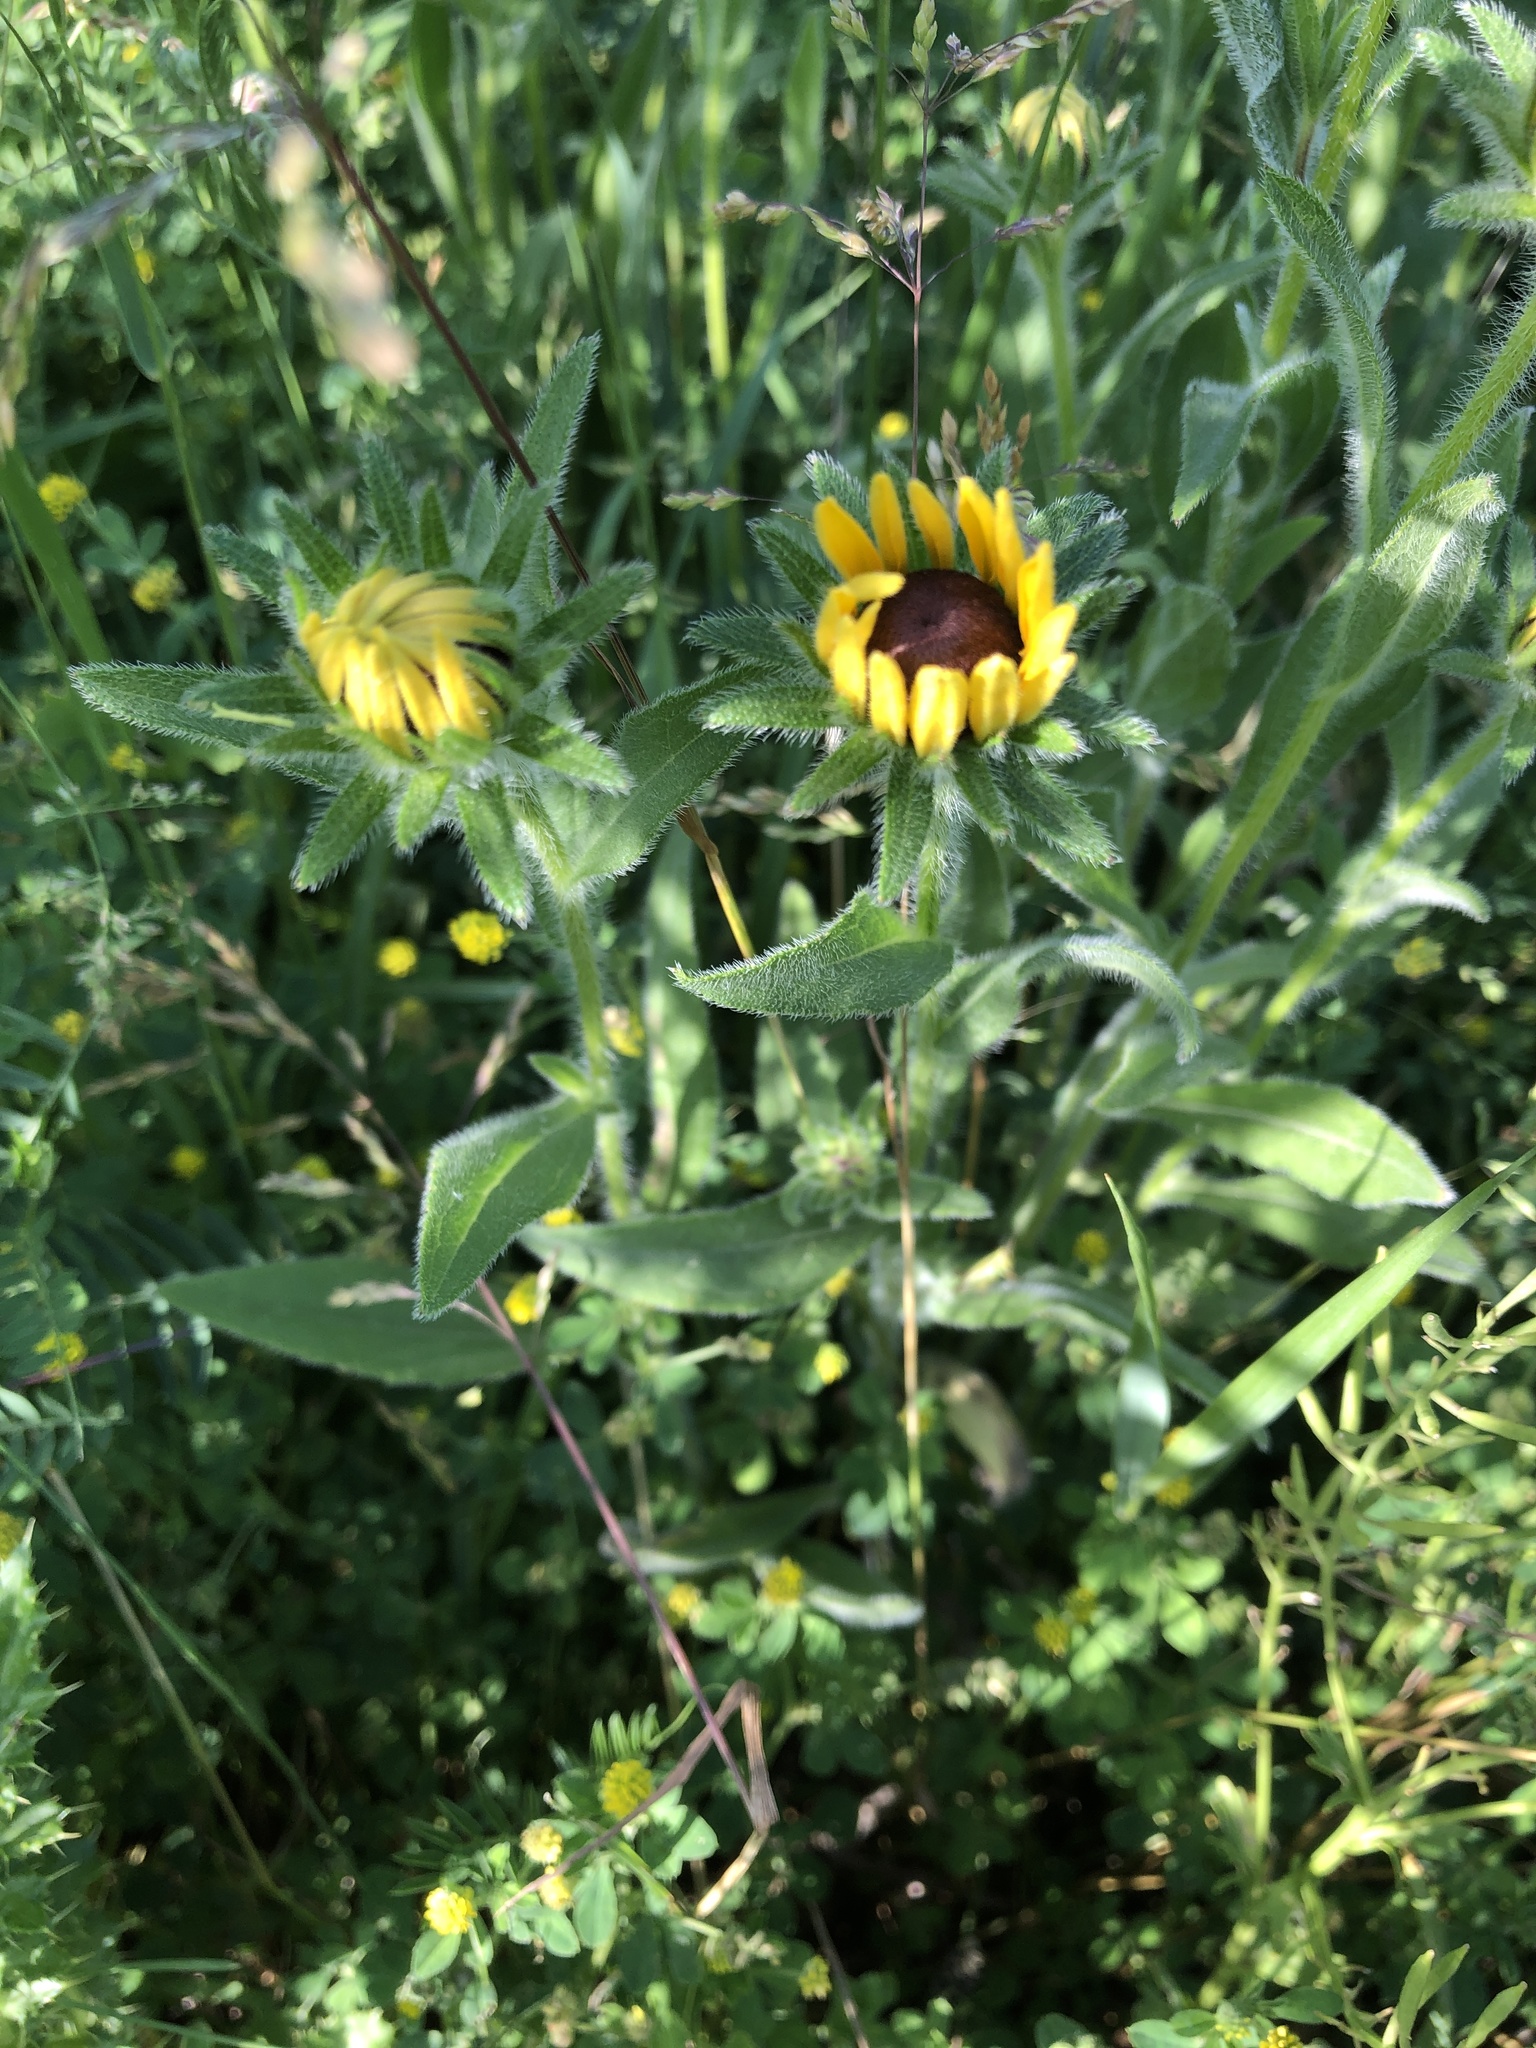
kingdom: Plantae
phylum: Tracheophyta
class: Magnoliopsida
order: Asterales
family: Asteraceae
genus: Rudbeckia
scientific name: Rudbeckia hirta
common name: Black-eyed-susan
